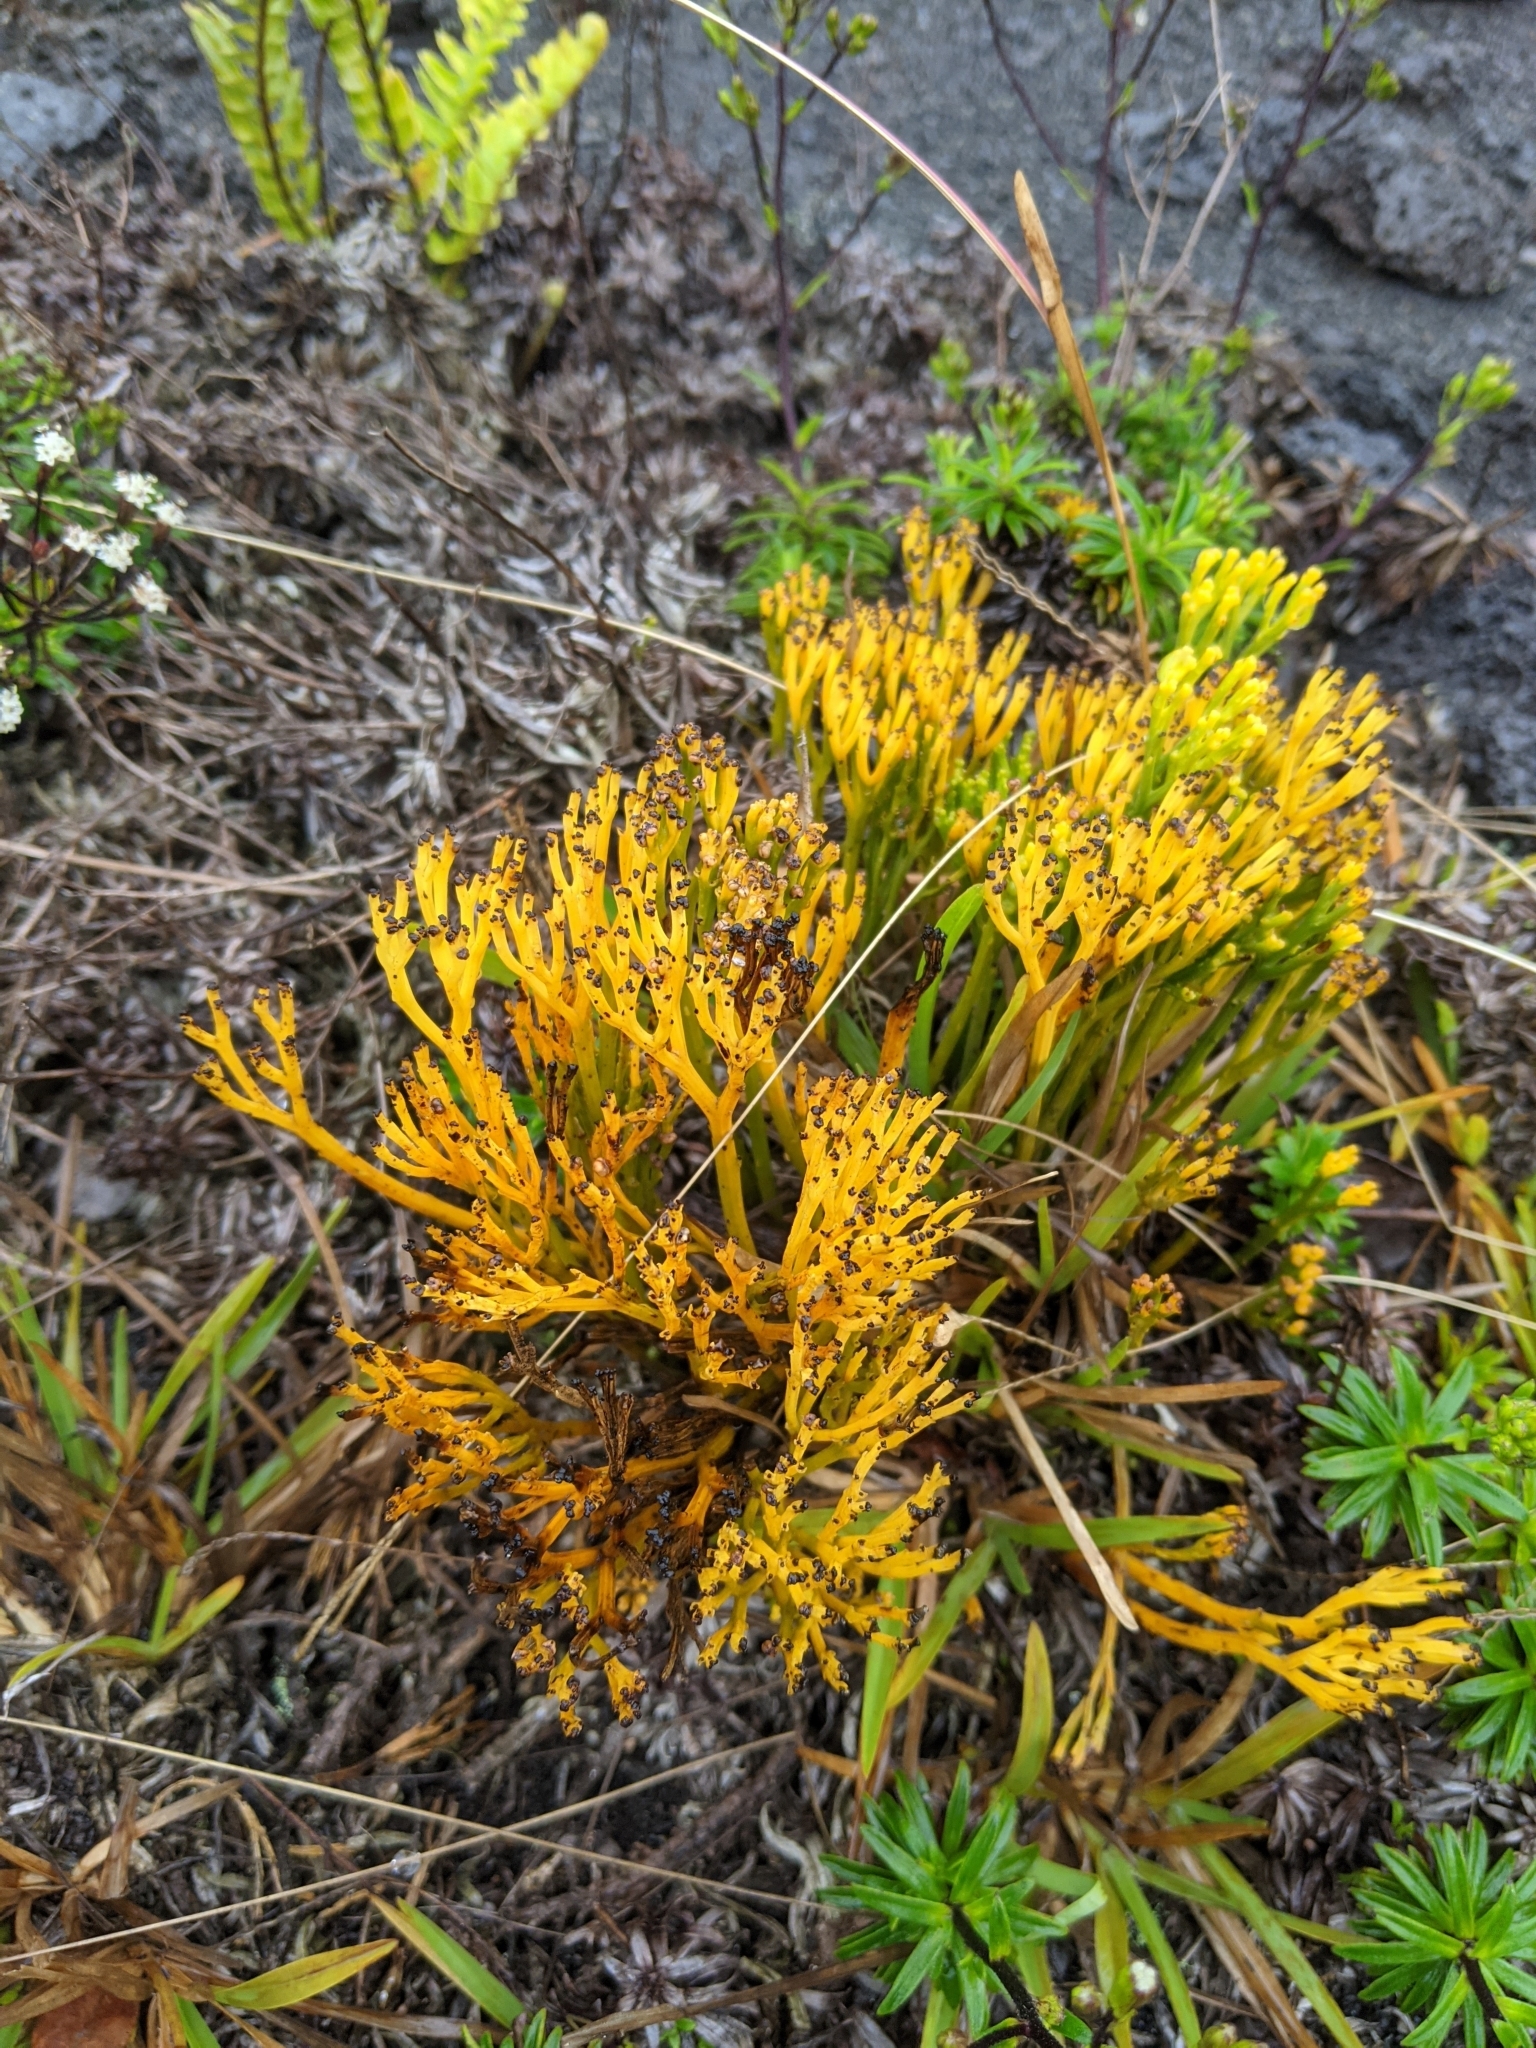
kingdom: Plantae
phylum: Tracheophyta
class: Polypodiopsida
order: Psilotales
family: Psilotaceae
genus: Psilotum
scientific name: Psilotum nudum
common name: Skeleton fork fern
